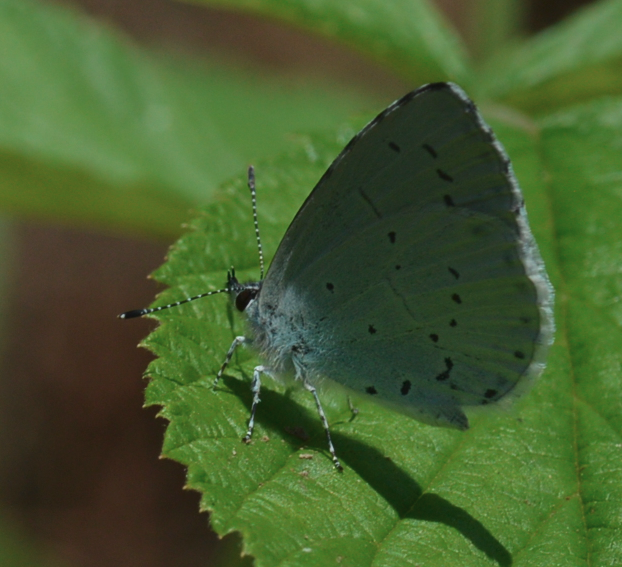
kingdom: Animalia
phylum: Arthropoda
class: Insecta
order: Lepidoptera
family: Lycaenidae
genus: Celastrina
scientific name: Celastrina argiolus
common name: Holly blue
